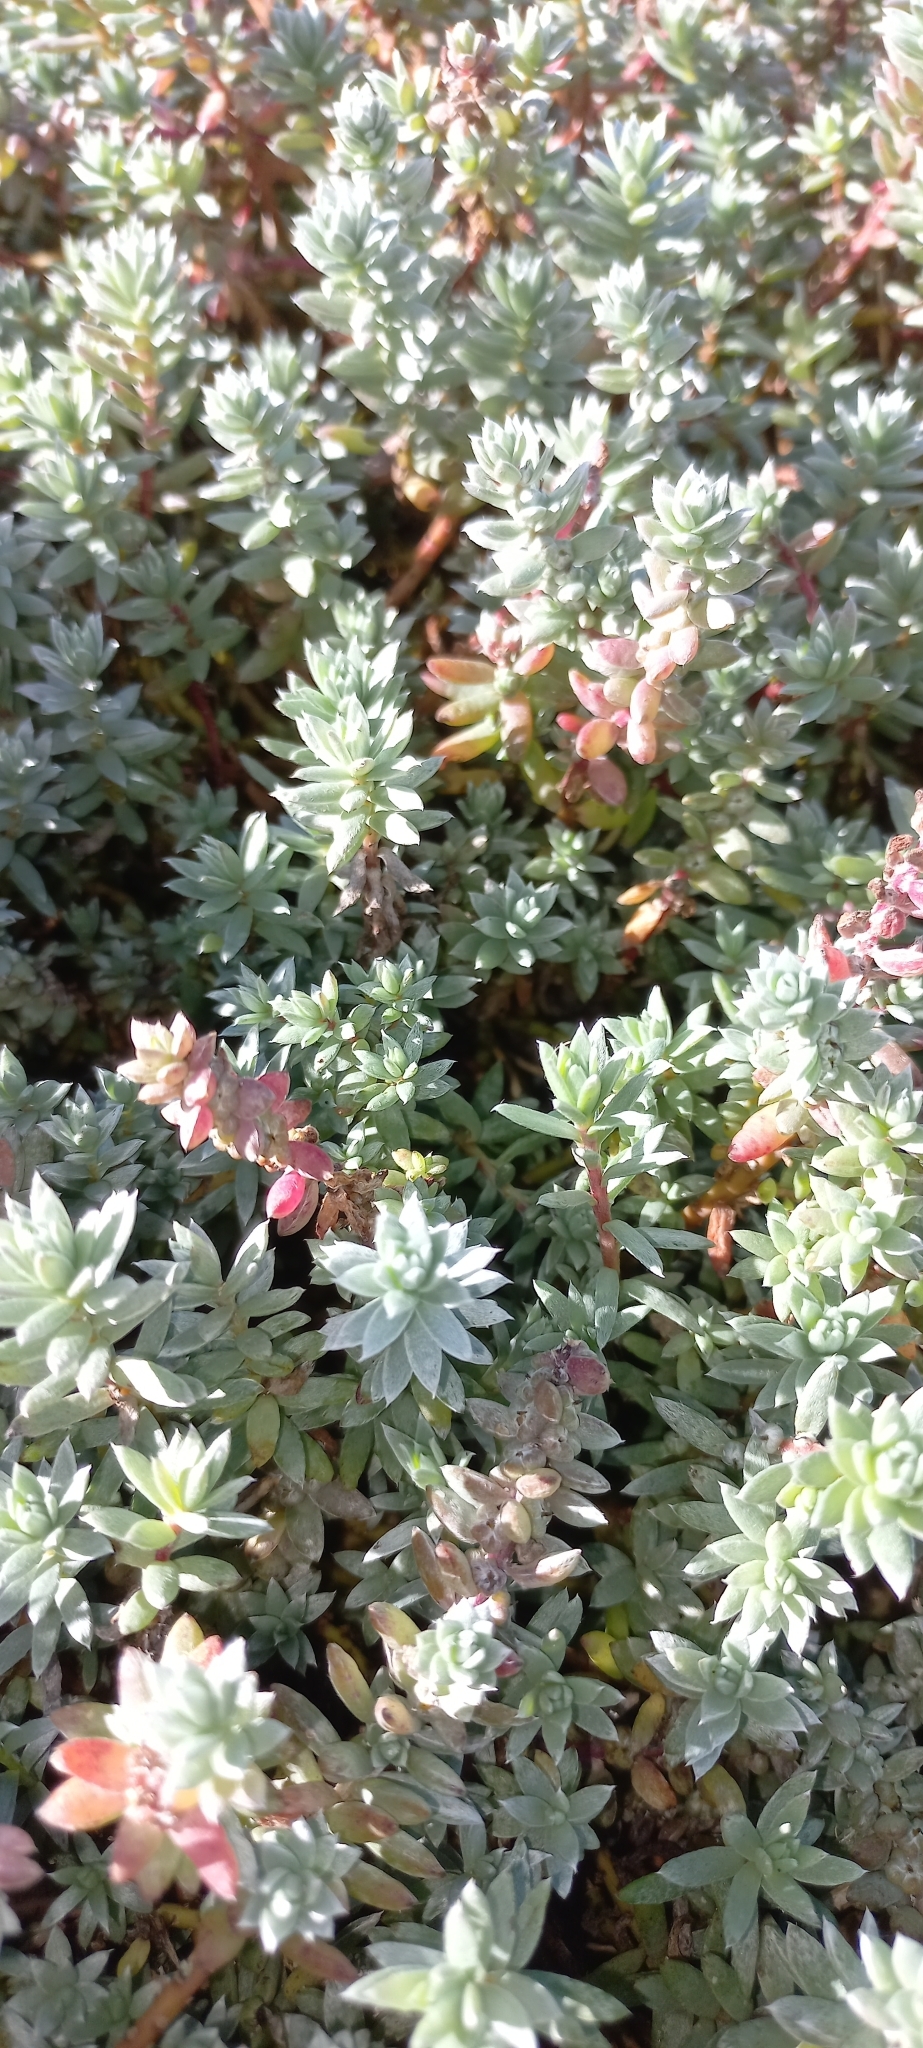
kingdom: Plantae
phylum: Tracheophyta
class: Magnoliopsida
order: Caryophyllales
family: Amaranthaceae
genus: Chenolea
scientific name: Chenolea diffusa
